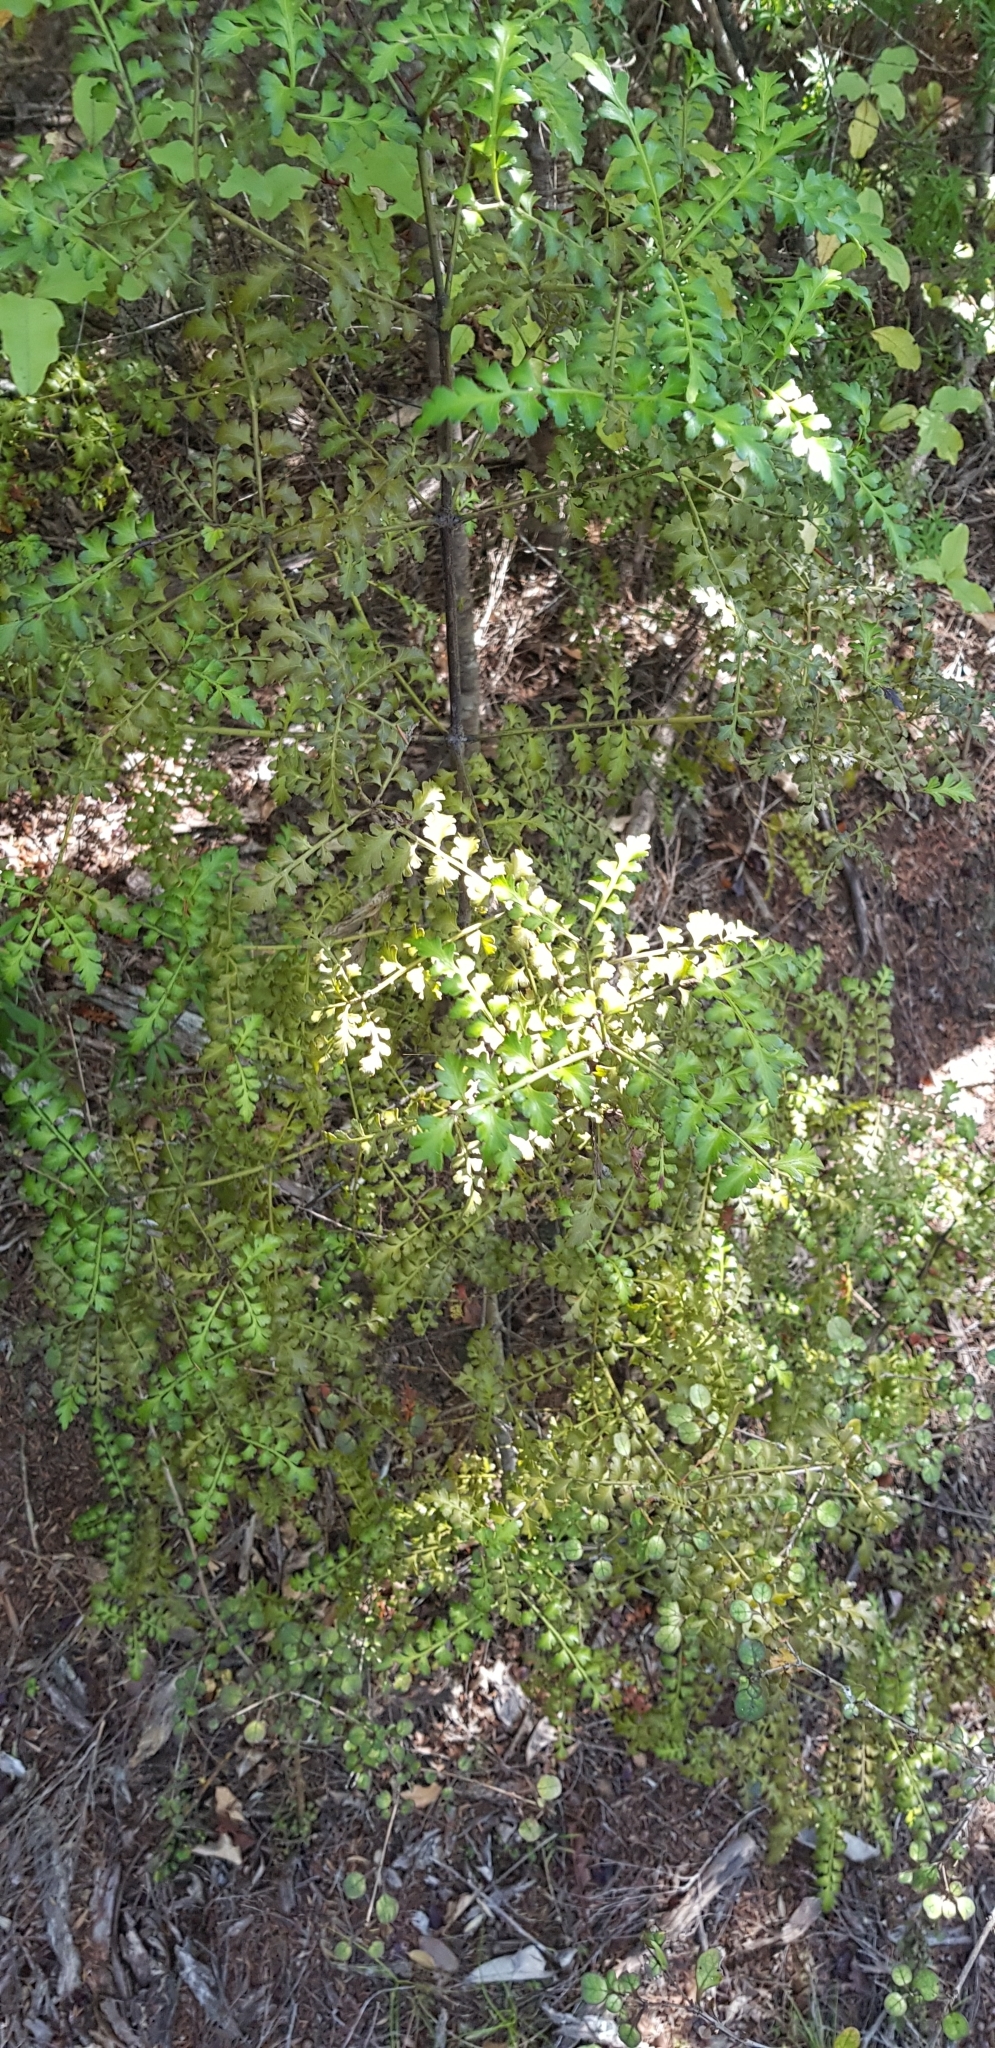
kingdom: Plantae
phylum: Tracheophyta
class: Pinopsida
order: Pinales
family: Phyllocladaceae
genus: Phyllocladus
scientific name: Phyllocladus trichomanoides
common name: Celery pine
